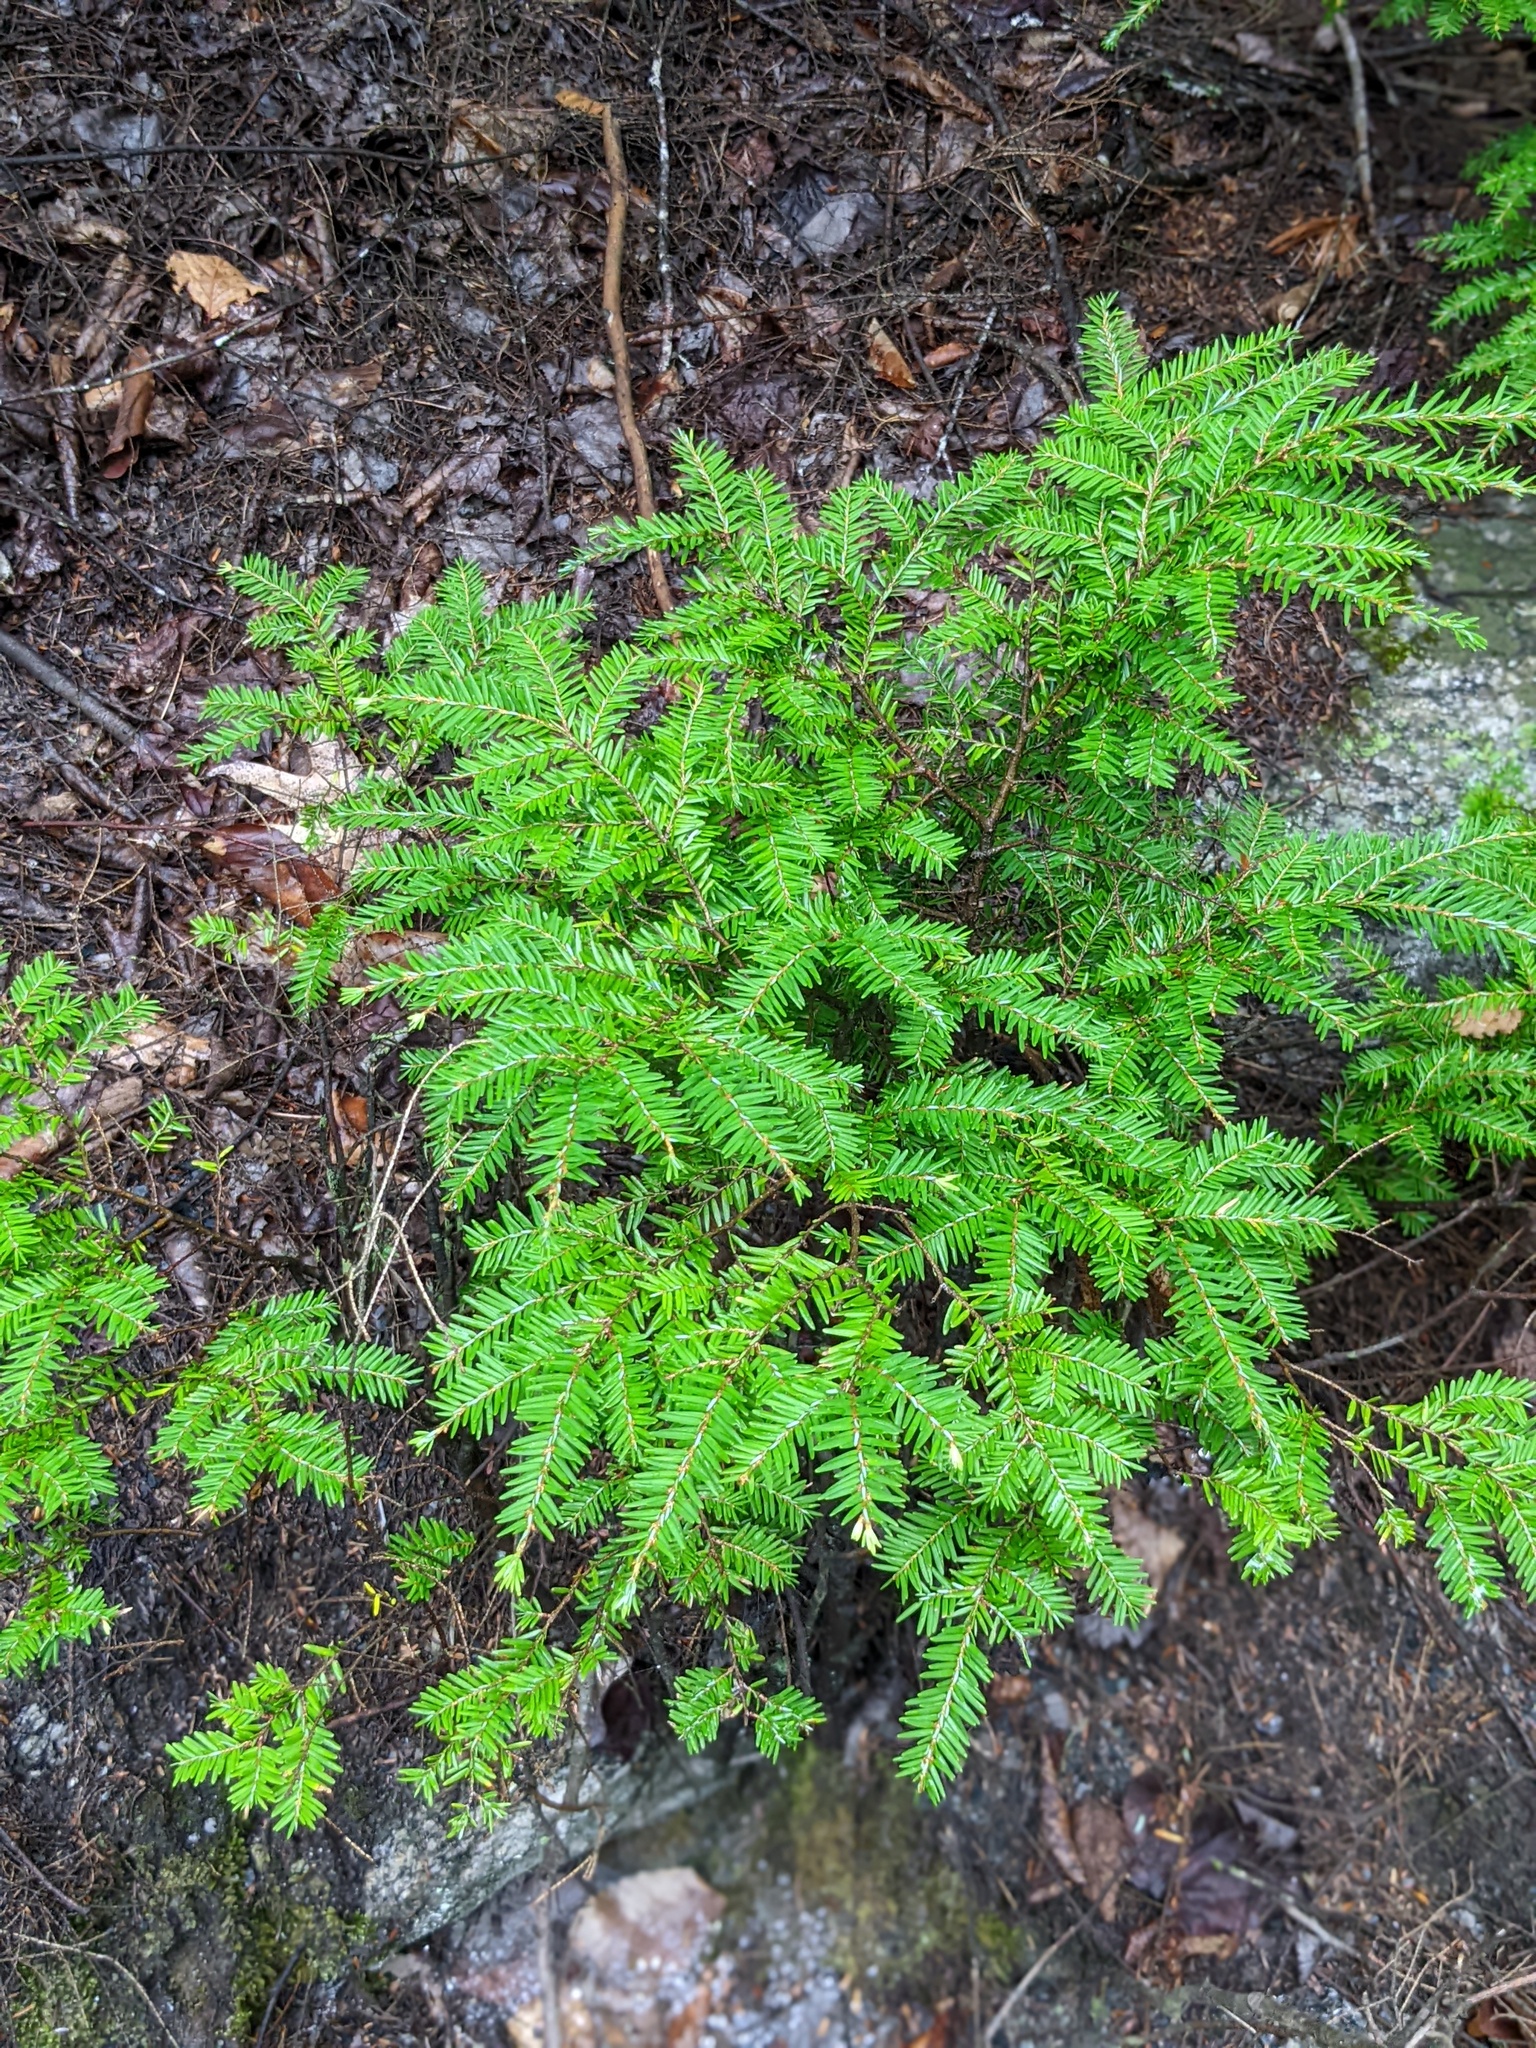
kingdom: Plantae
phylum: Tracheophyta
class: Pinopsida
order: Pinales
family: Pinaceae
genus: Tsuga
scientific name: Tsuga canadensis
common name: Eastern hemlock
